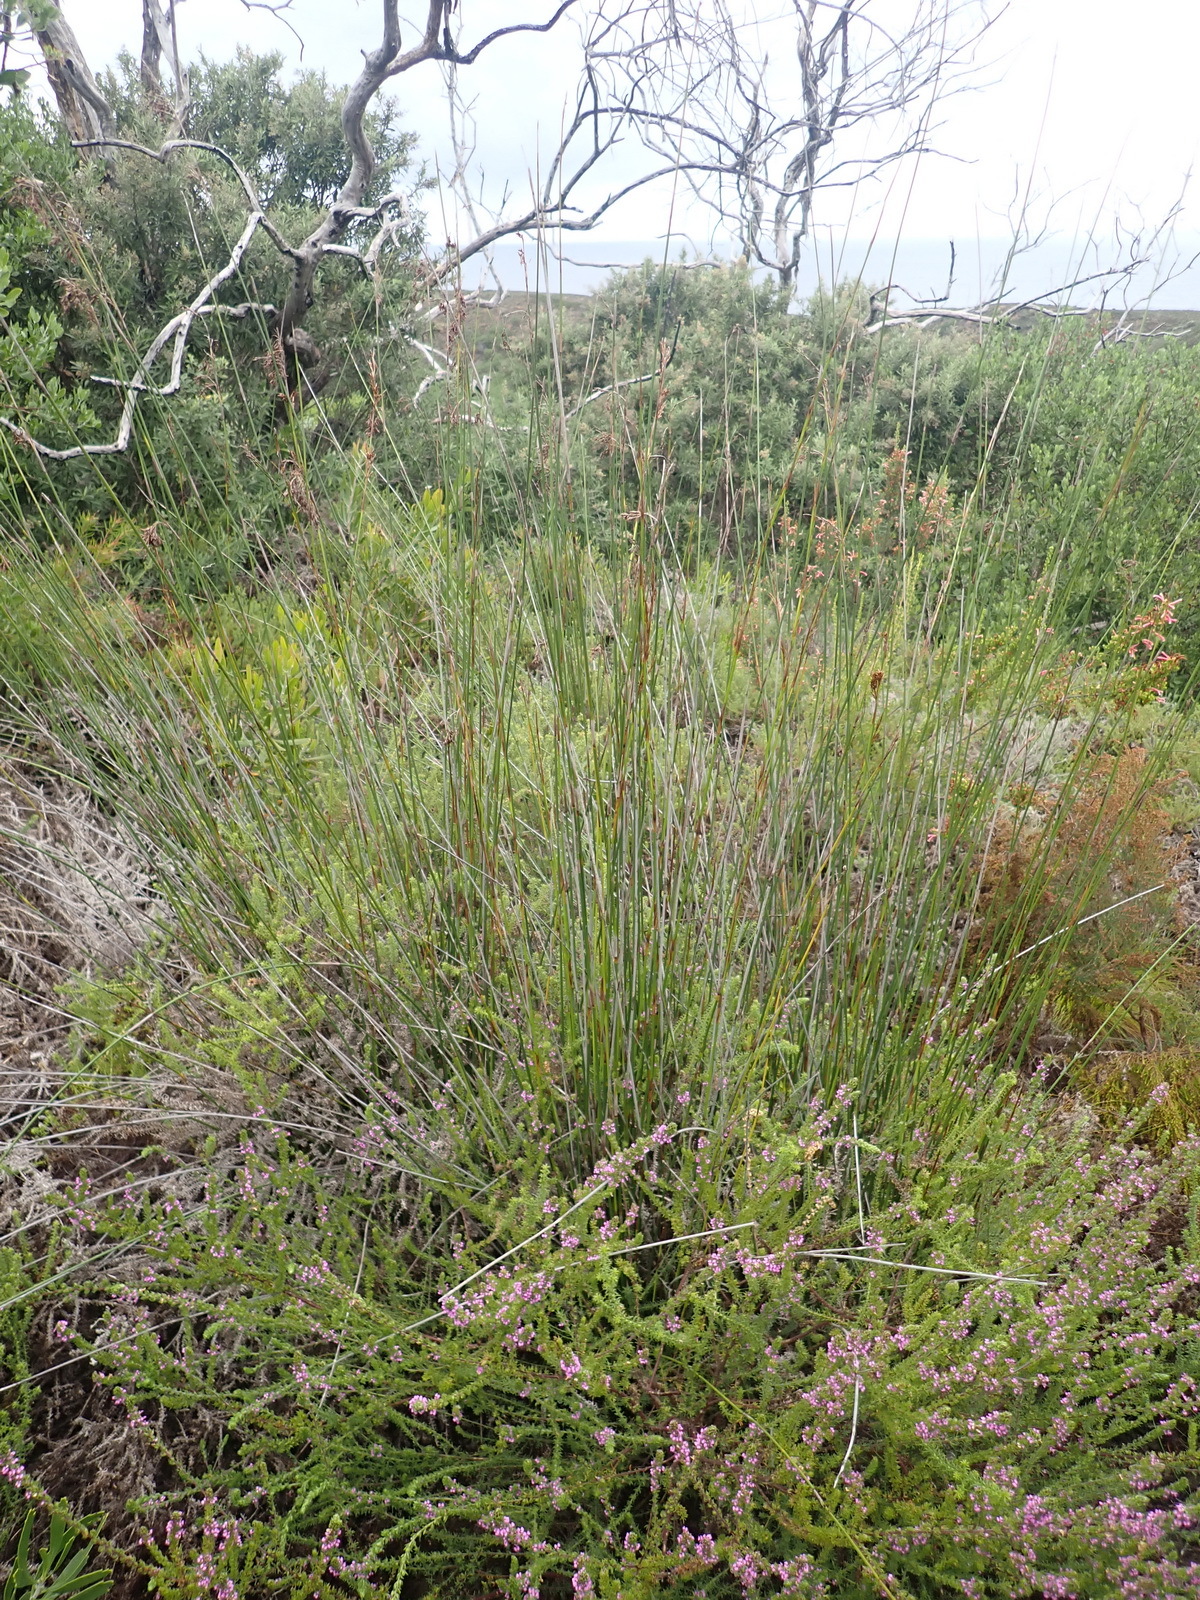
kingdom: Plantae
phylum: Tracheophyta
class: Liliopsida
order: Poales
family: Restionaceae
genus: Thamnochortus
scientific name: Thamnochortus insignis
